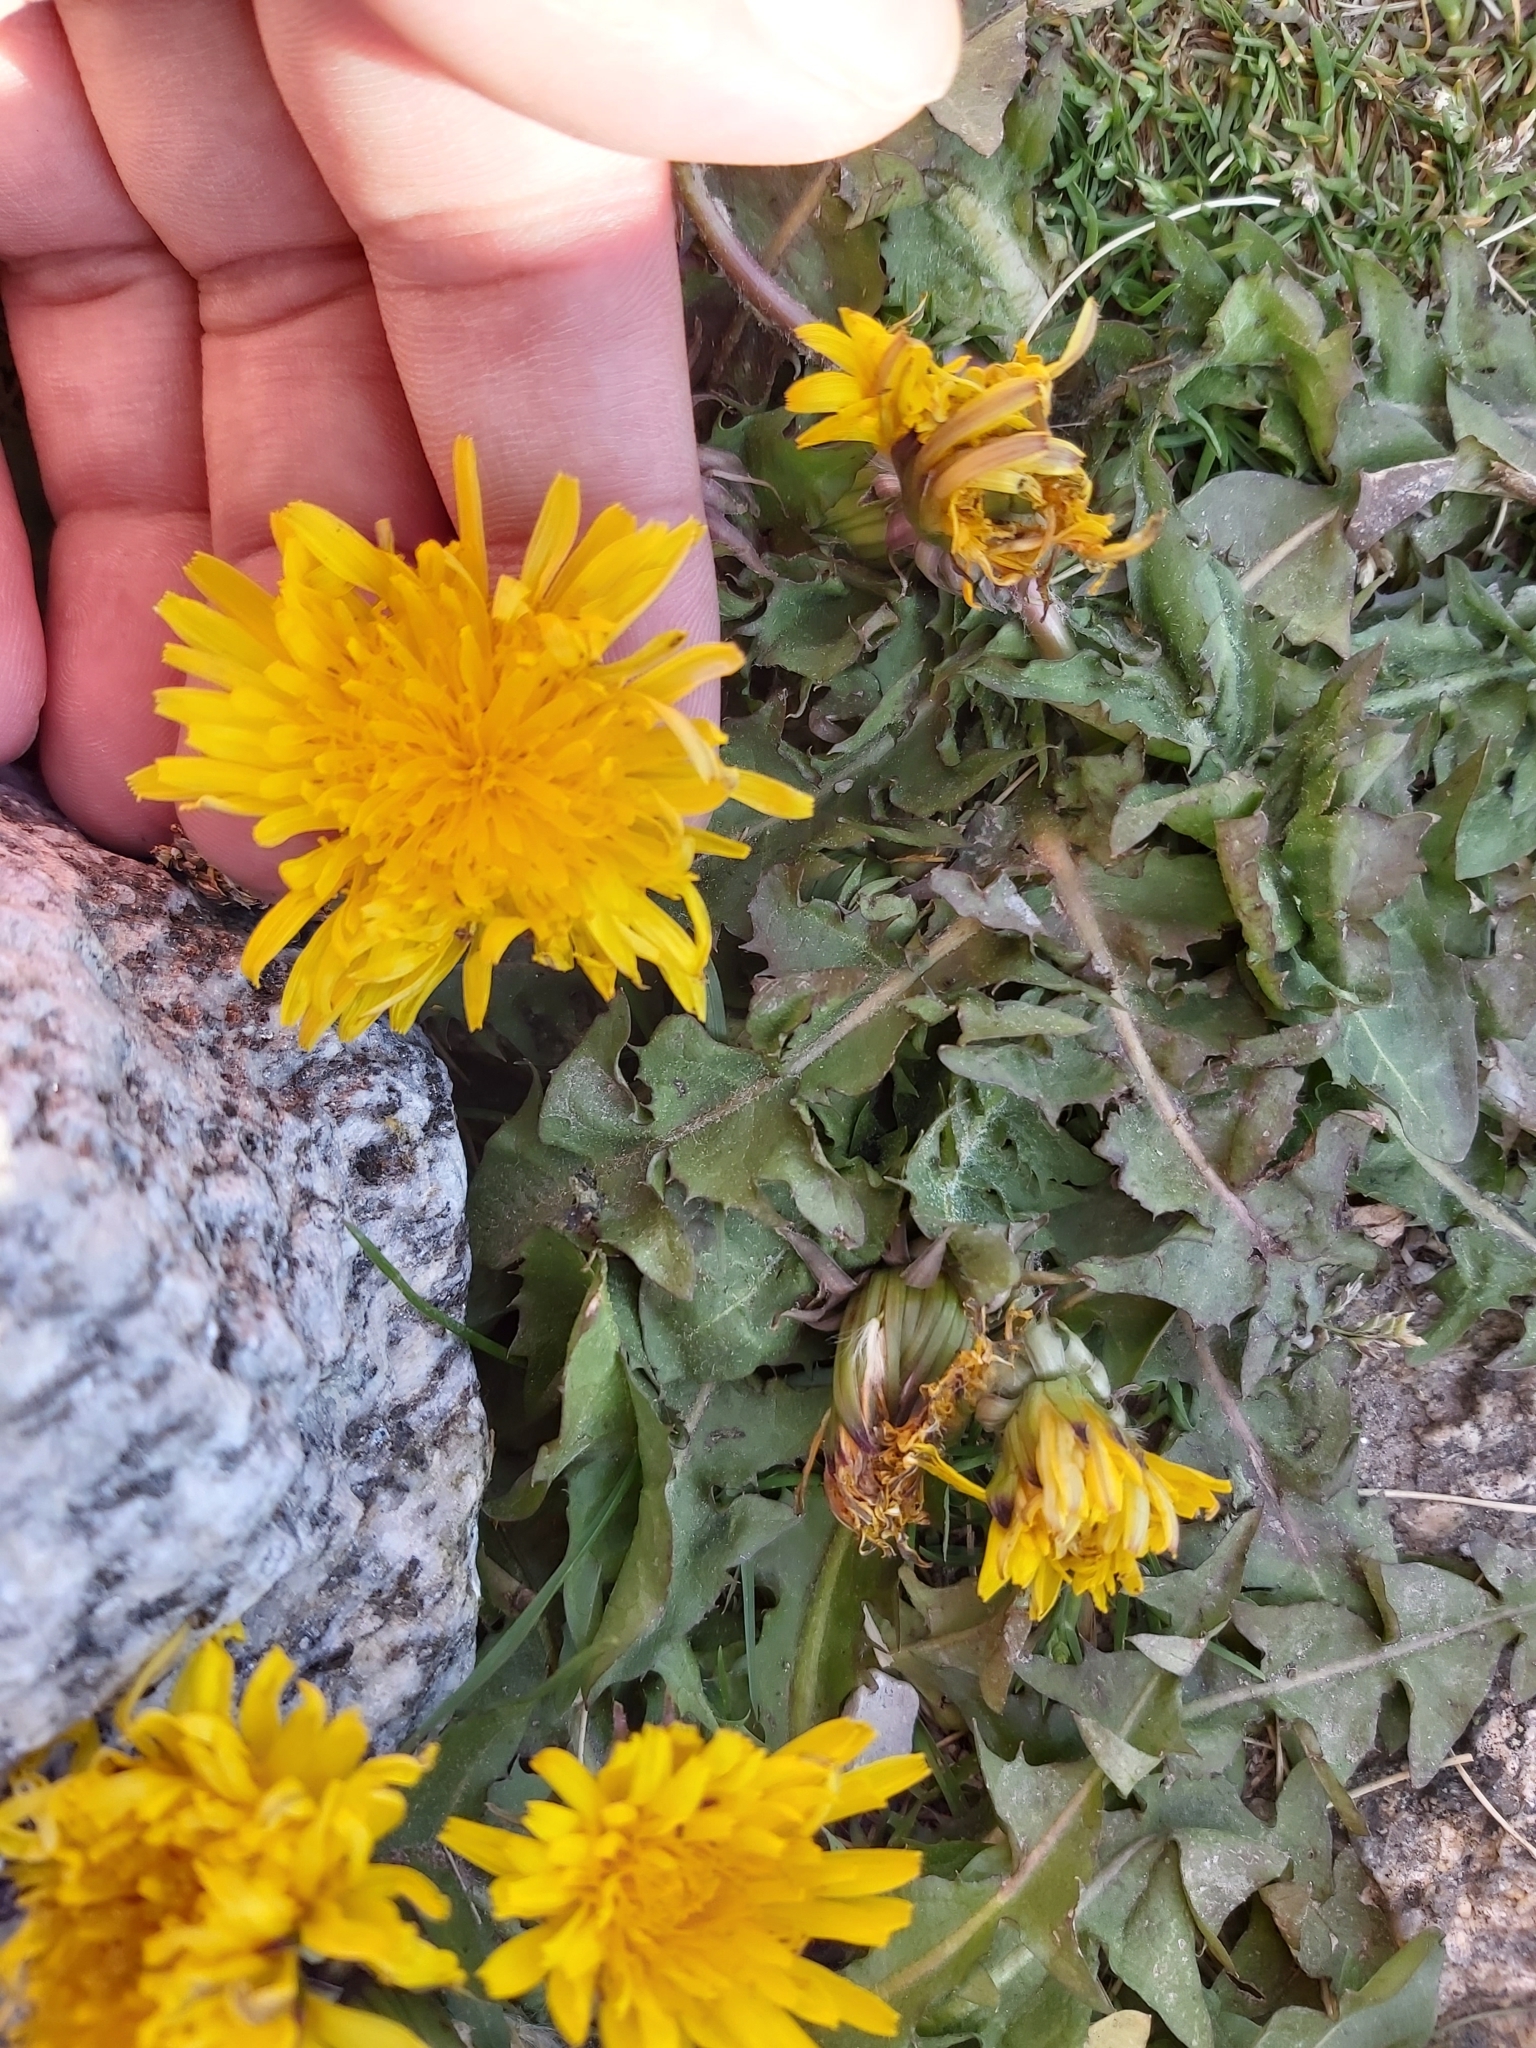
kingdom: Plantae
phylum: Tracheophyta
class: Magnoliopsida
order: Asterales
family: Asteraceae
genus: Taraxacum
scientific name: Taraxacum officinale
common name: Common dandelion
